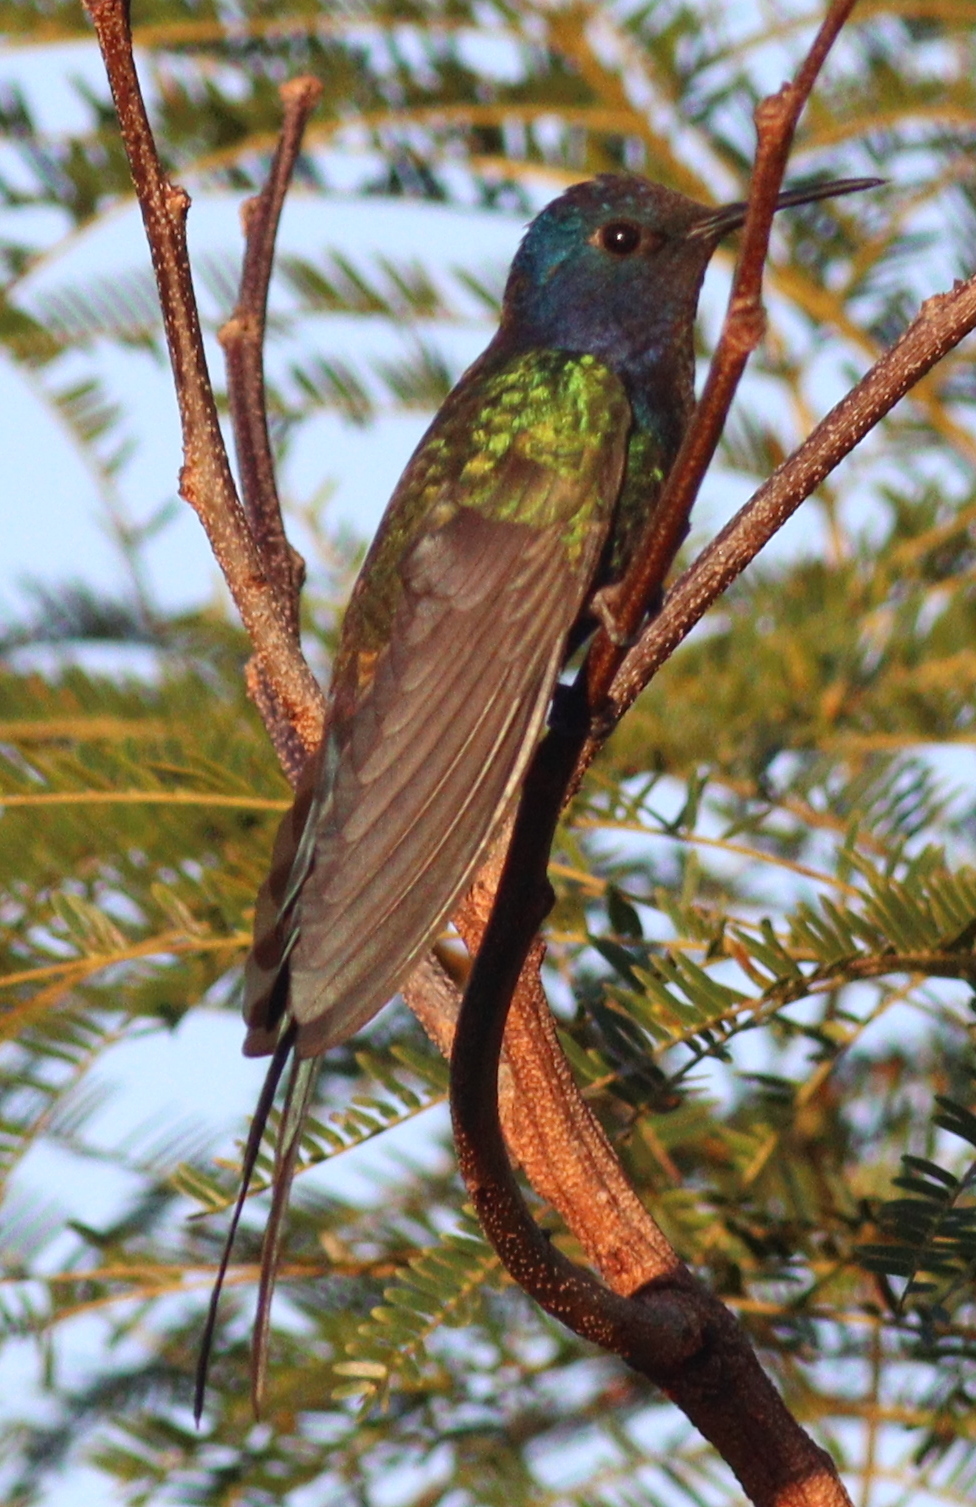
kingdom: Animalia
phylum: Chordata
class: Aves
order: Apodiformes
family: Trochilidae
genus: Eupetomena
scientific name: Eupetomena macroura
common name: Swallow-tailed hummingbird
